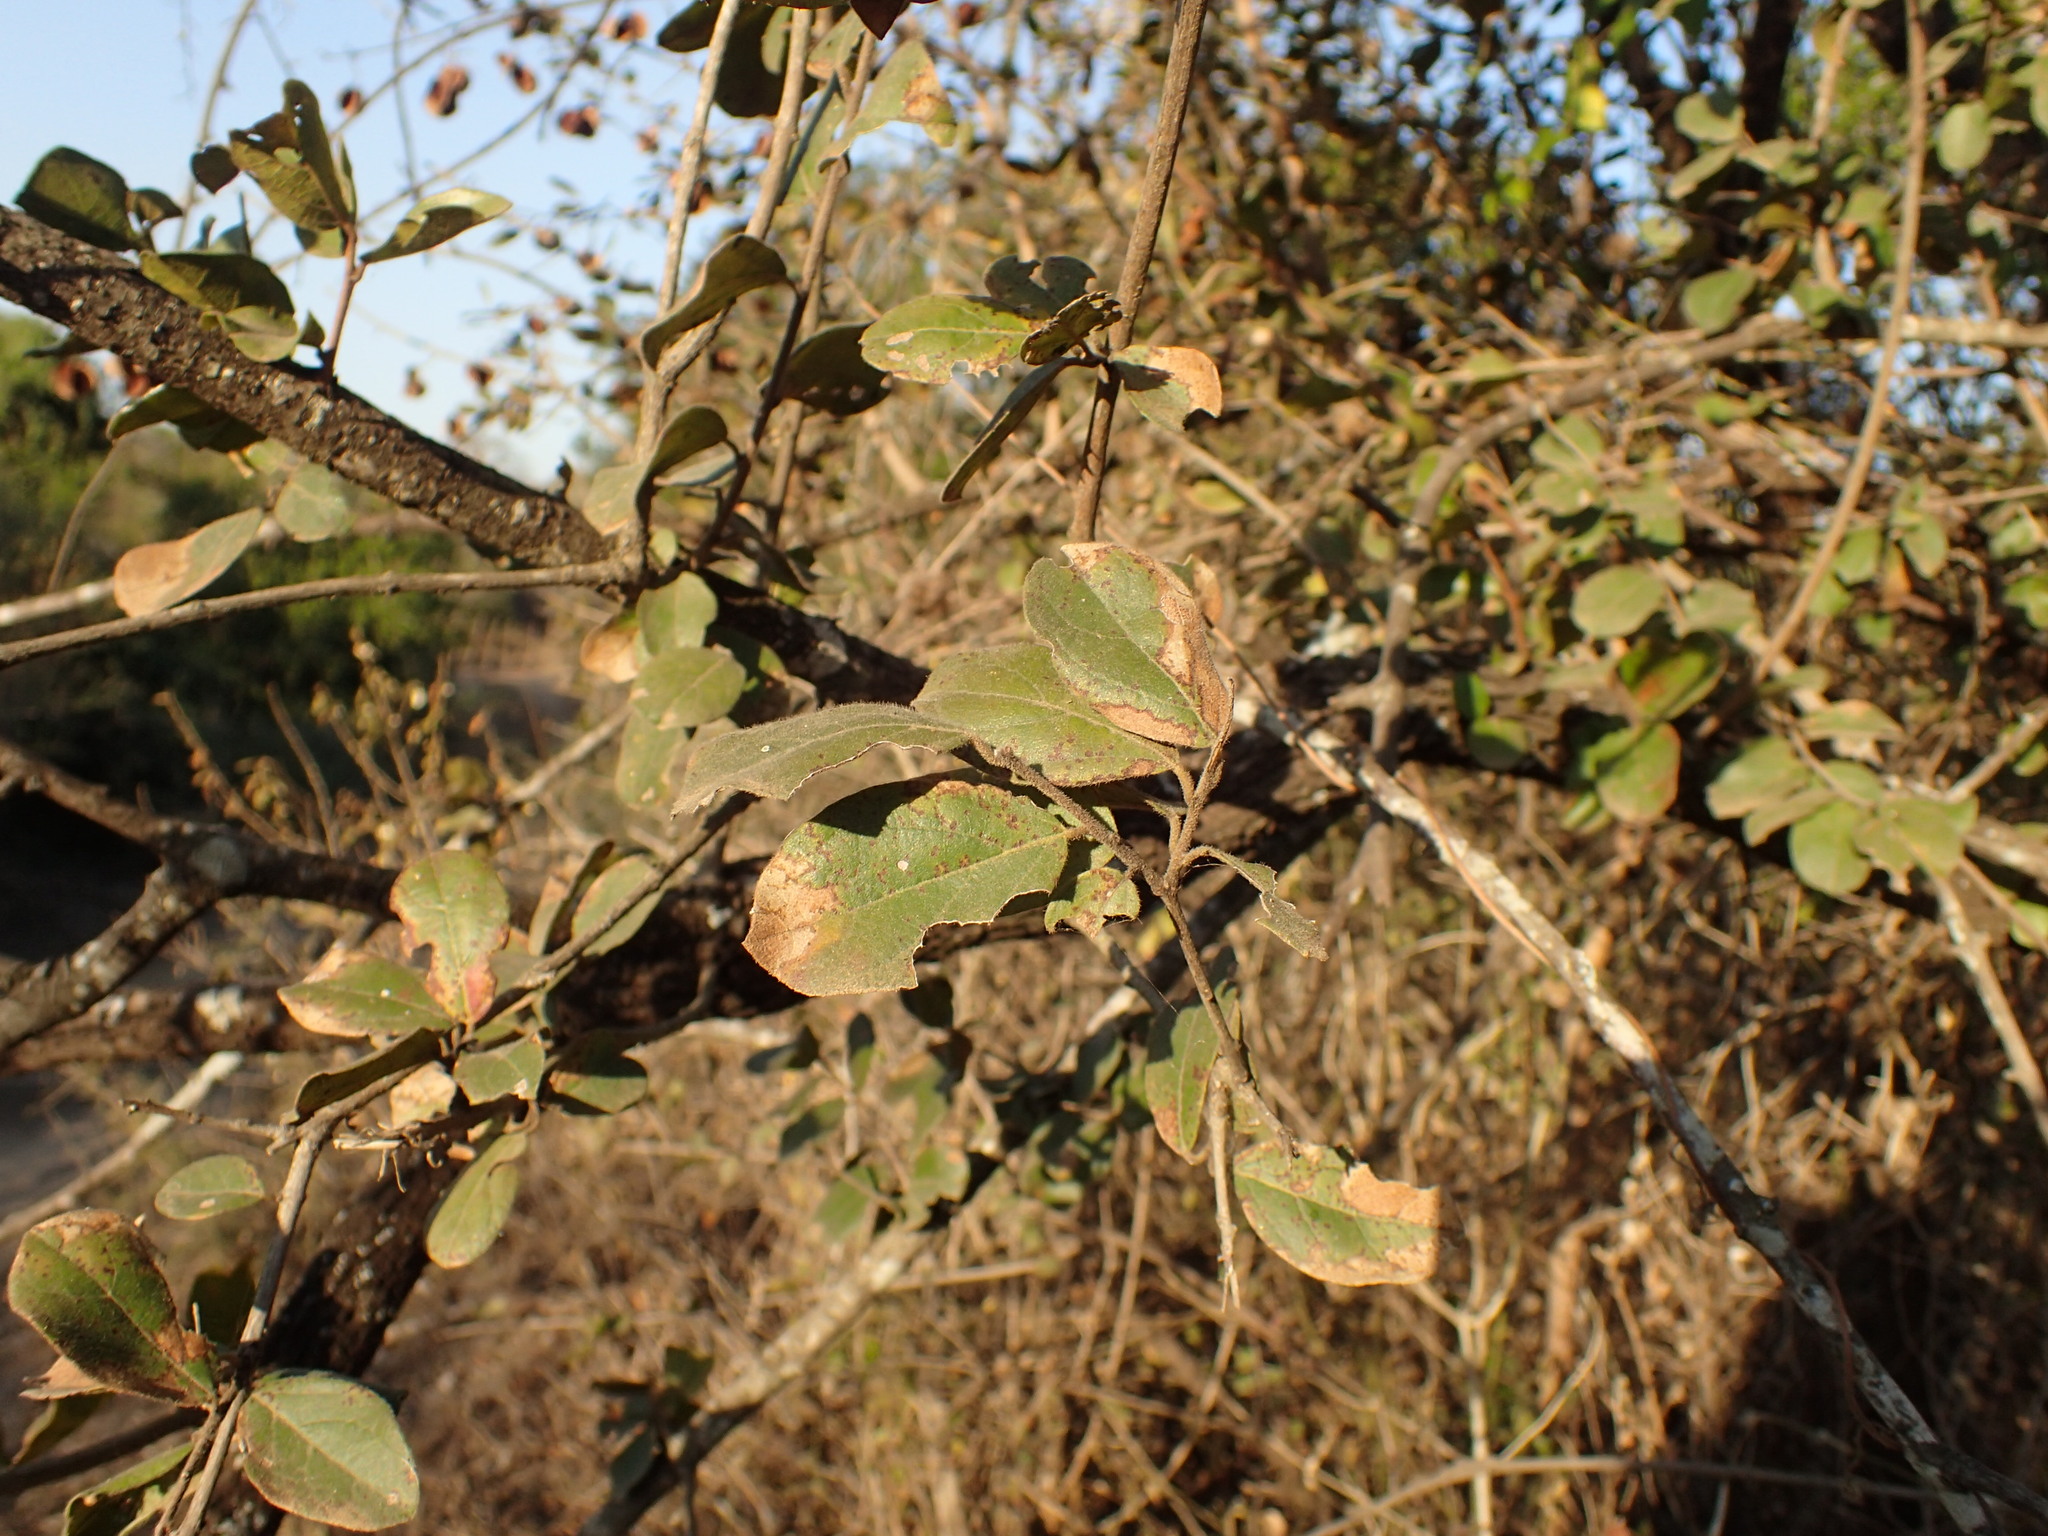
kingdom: Plantae
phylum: Tracheophyta
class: Magnoliopsida
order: Myrtales
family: Combretaceae
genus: Combretum
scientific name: Combretum hereroense
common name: Russet bushwillow
